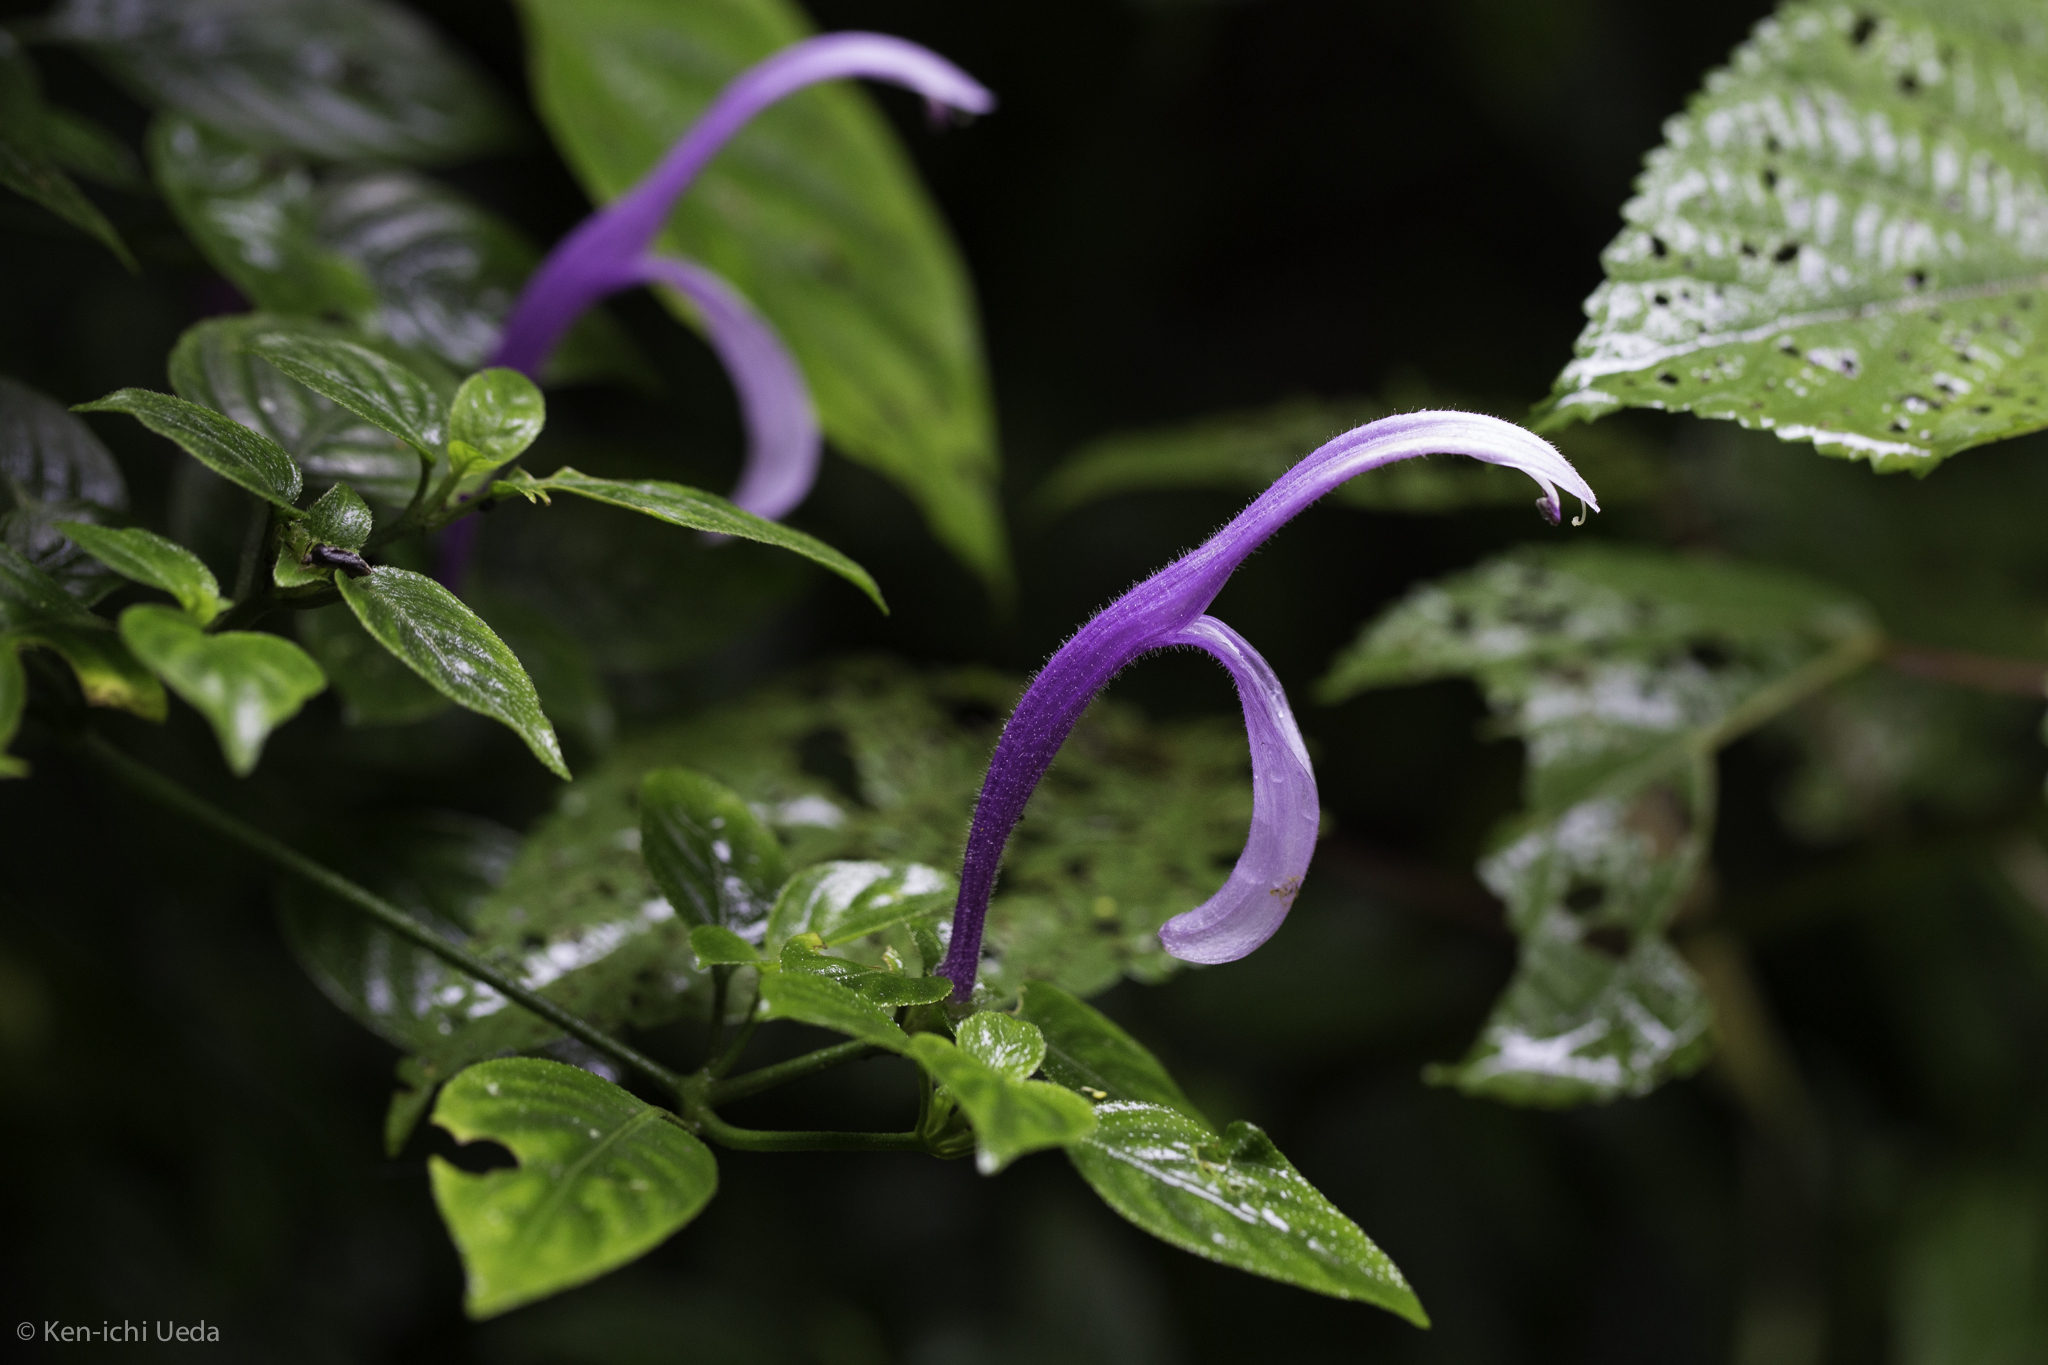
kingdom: Plantae
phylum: Tracheophyta
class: Magnoliopsida
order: Lamiales
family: Acanthaceae
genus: Poikilacanthus
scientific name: Poikilacanthus macranthus
